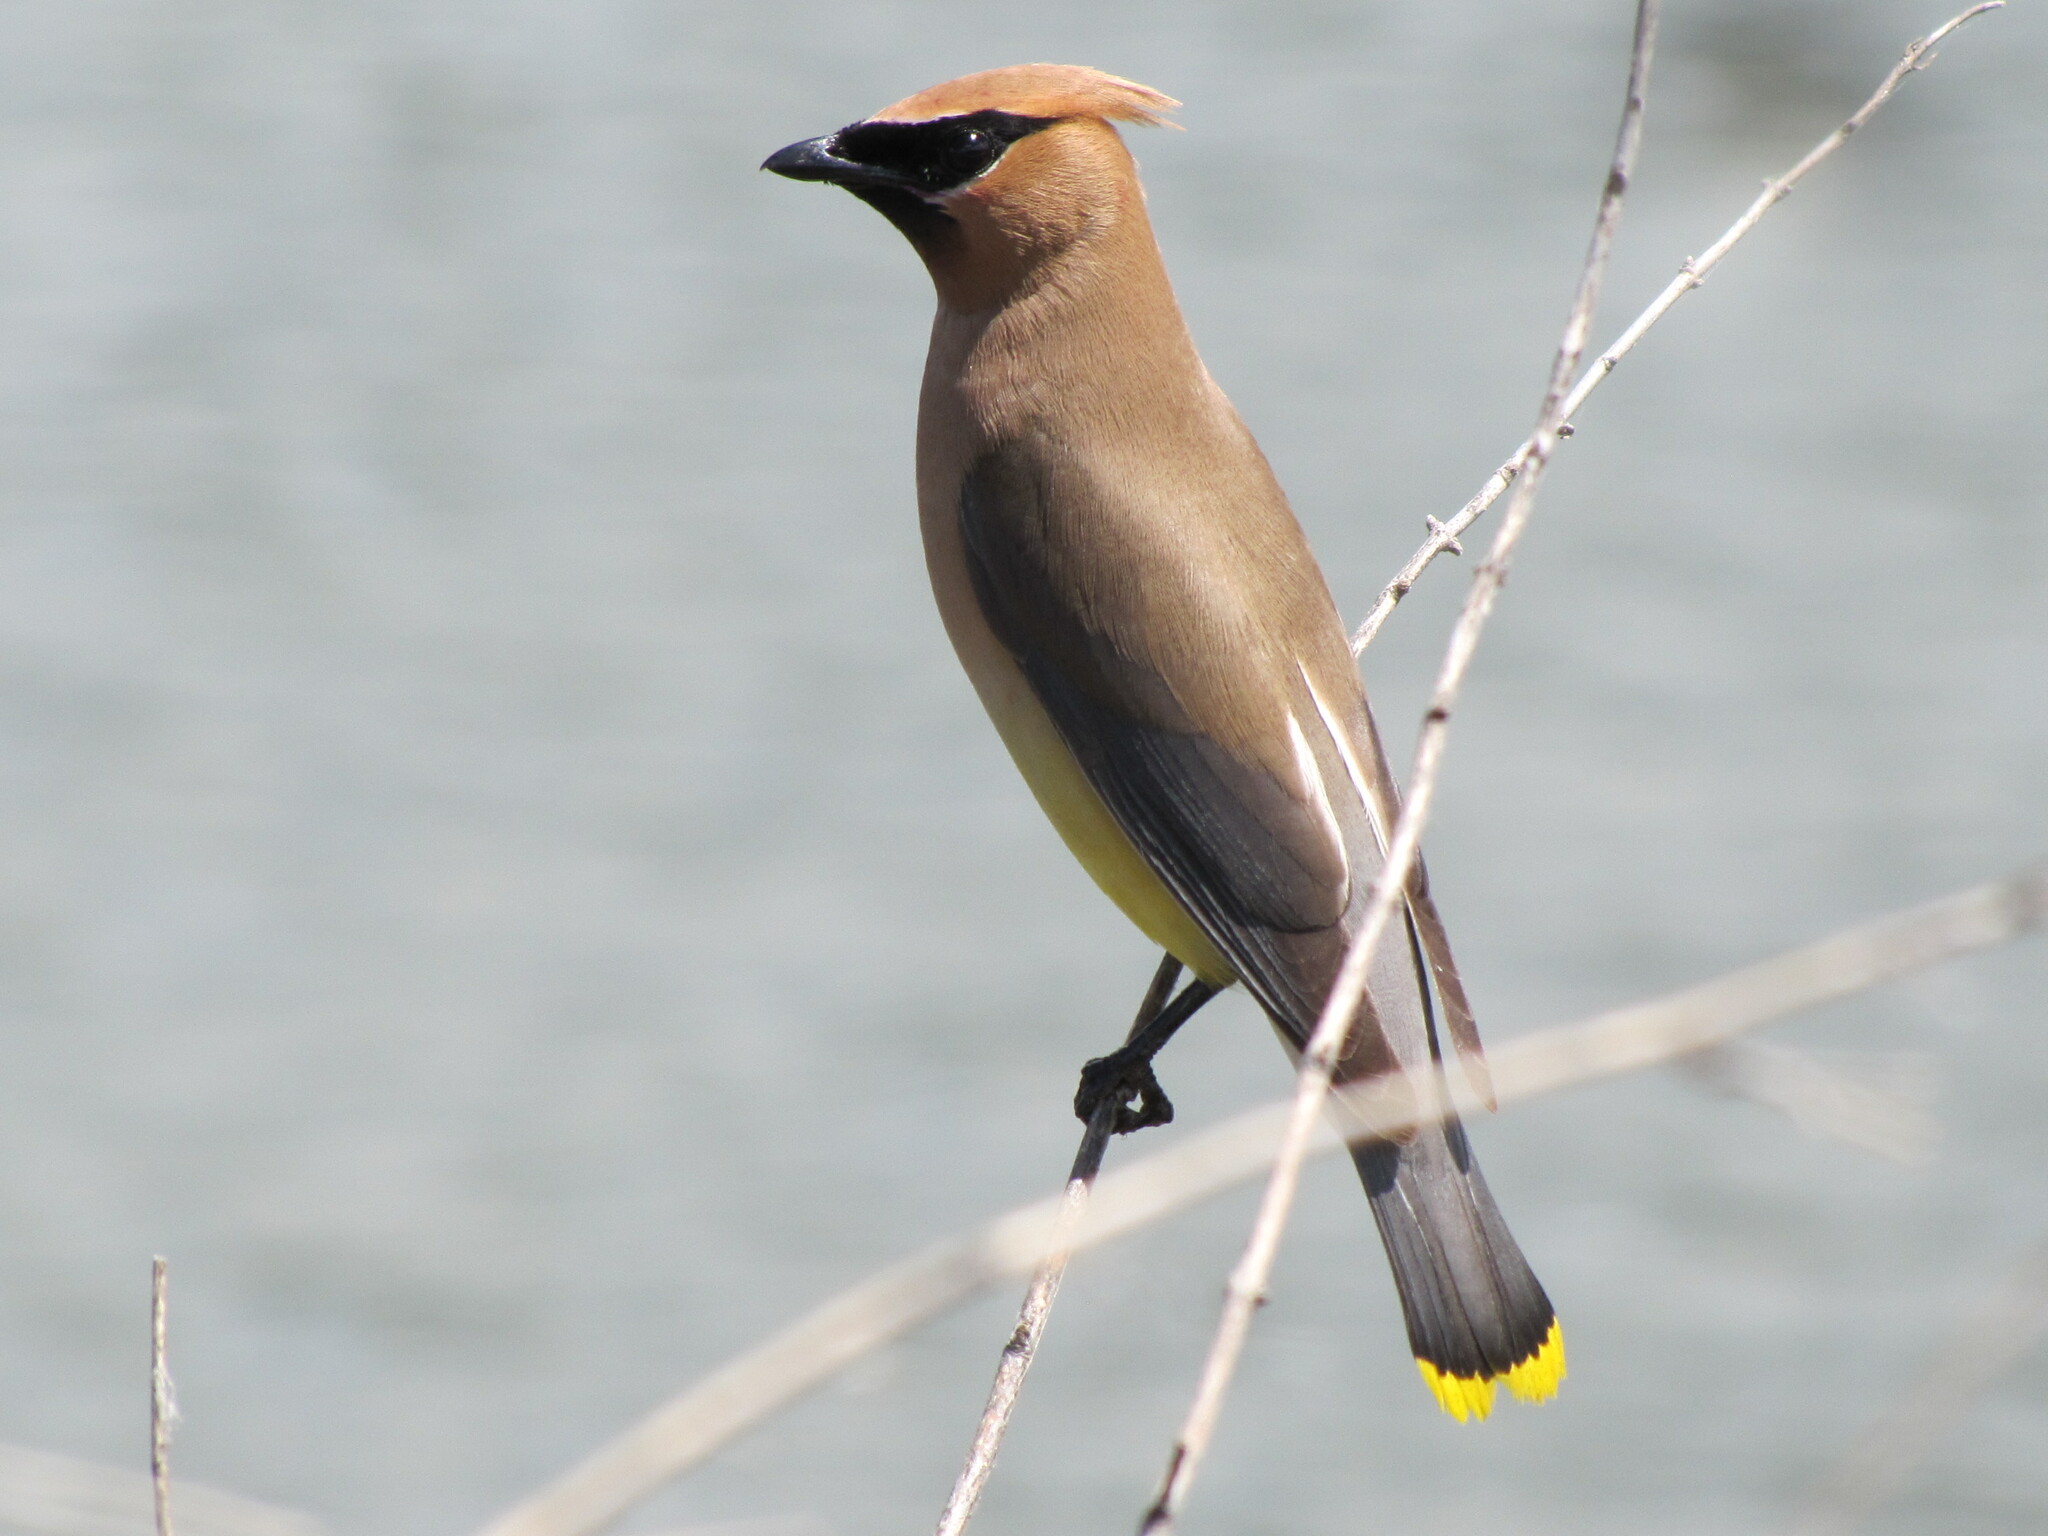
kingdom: Animalia
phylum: Chordata
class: Aves
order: Passeriformes
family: Bombycillidae
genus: Bombycilla
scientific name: Bombycilla cedrorum
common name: Cedar waxwing
